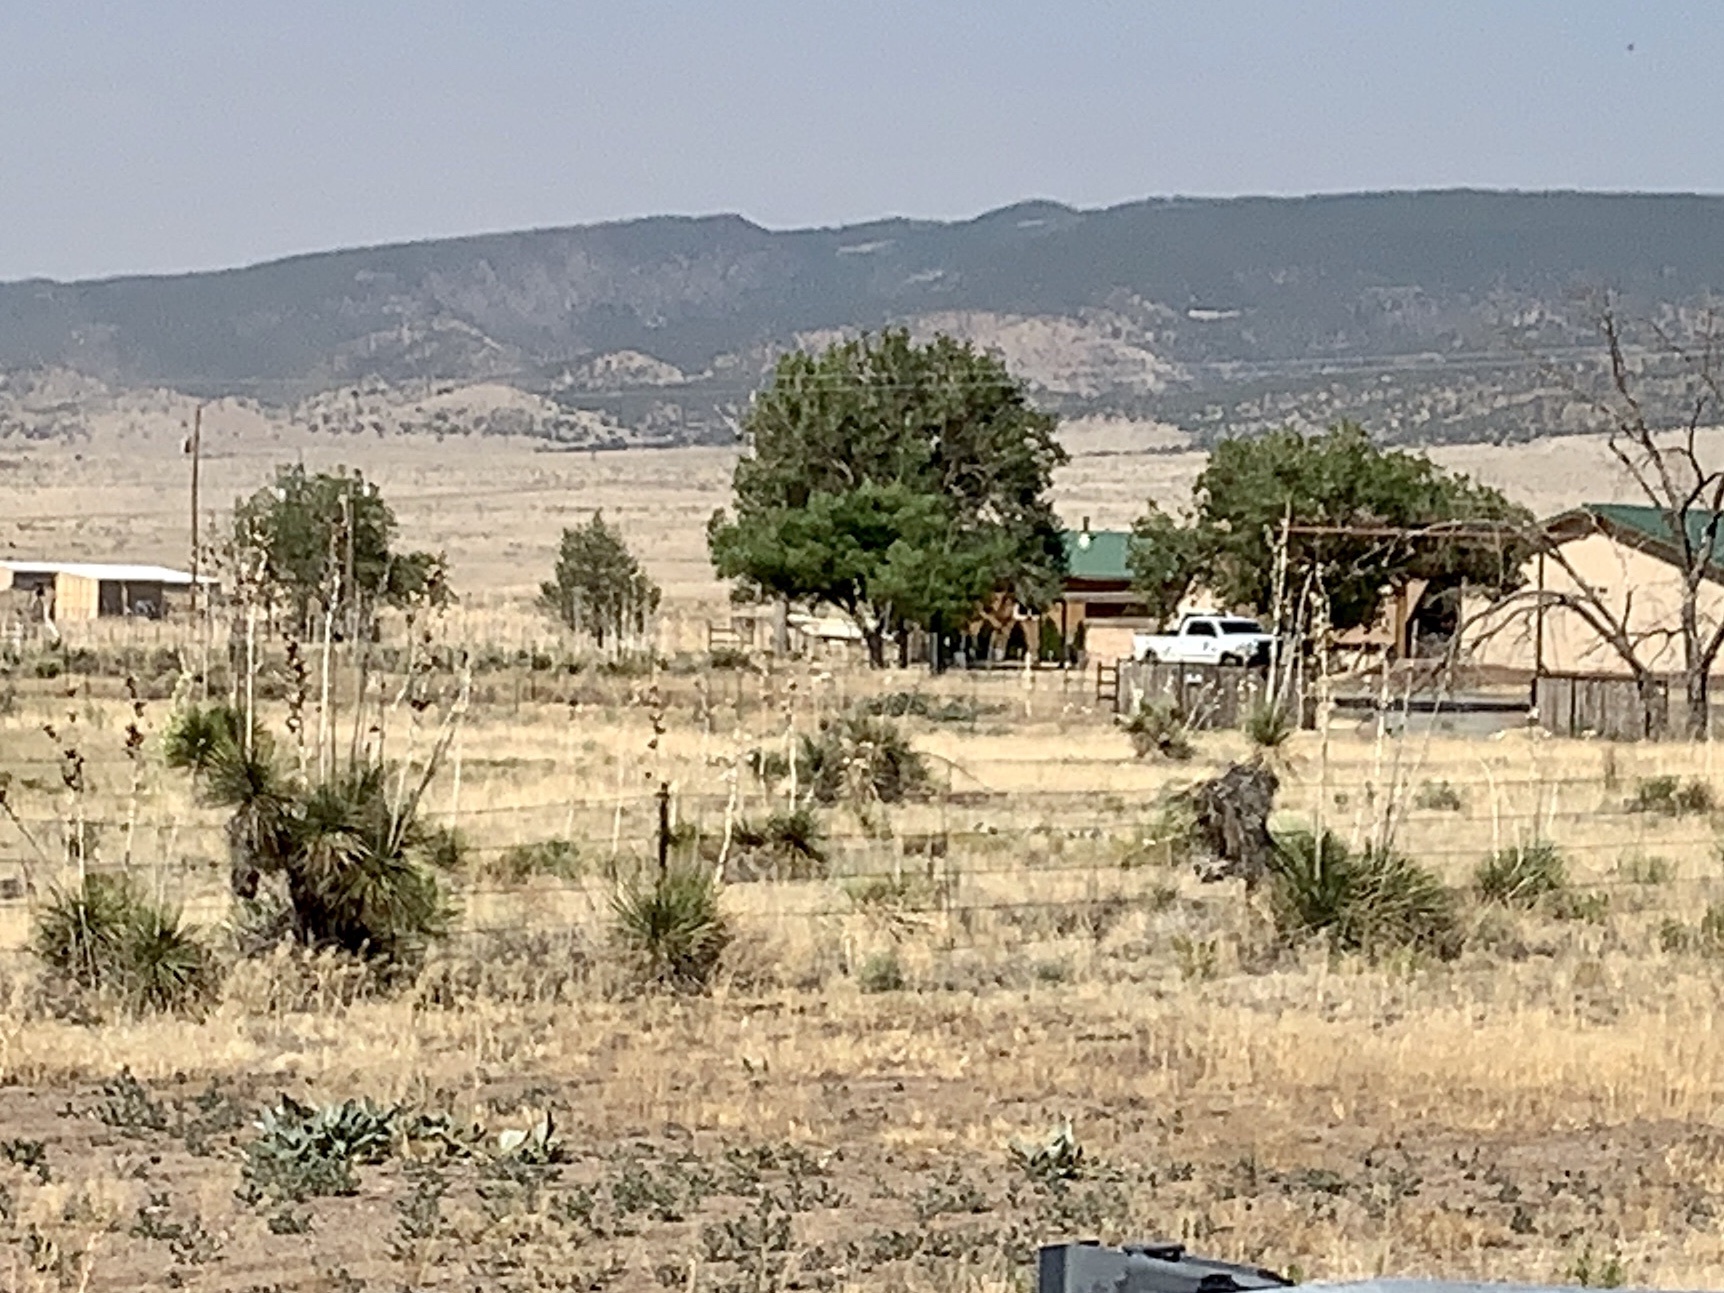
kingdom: Plantae
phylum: Tracheophyta
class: Liliopsida
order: Asparagales
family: Asparagaceae
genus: Yucca
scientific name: Yucca elata
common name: Palmella
